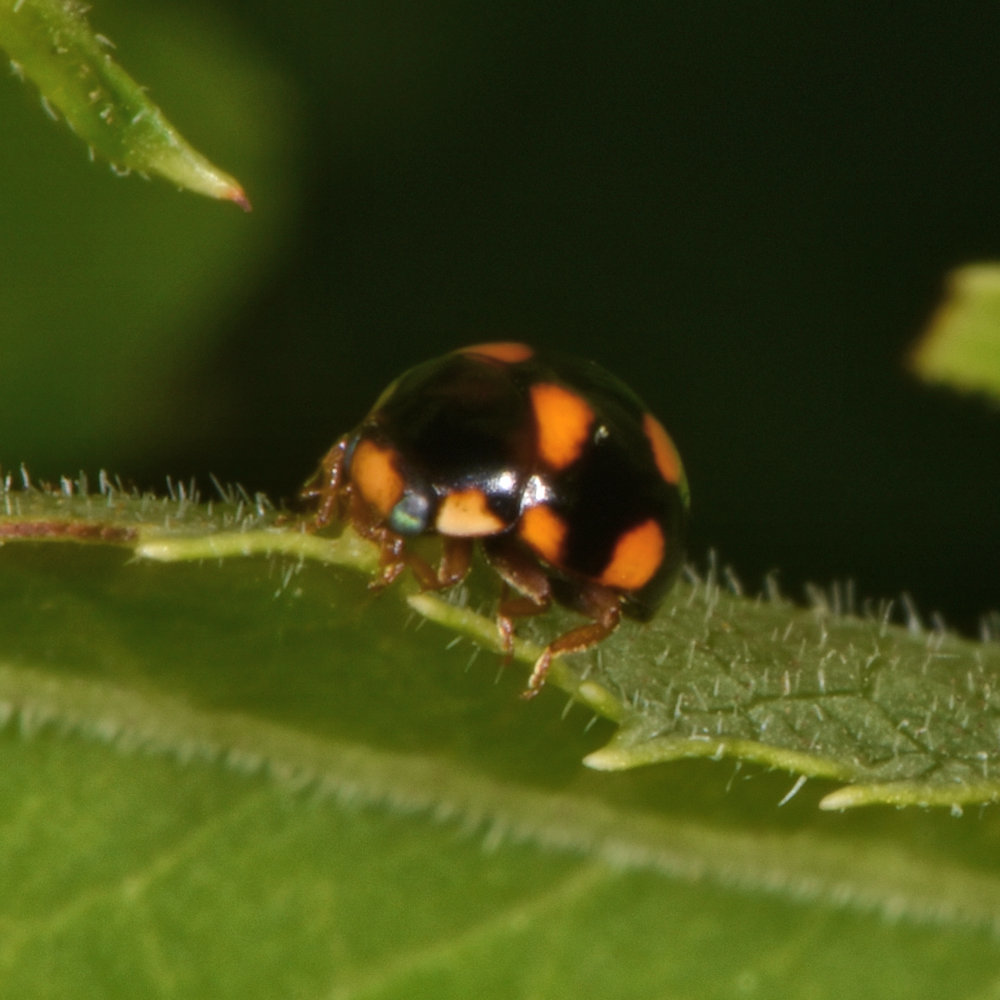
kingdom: Animalia
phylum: Arthropoda
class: Insecta
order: Coleoptera
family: Coccinellidae
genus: Brachiacantha
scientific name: Brachiacantha ursina
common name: Ursine spurleg lady beetle
